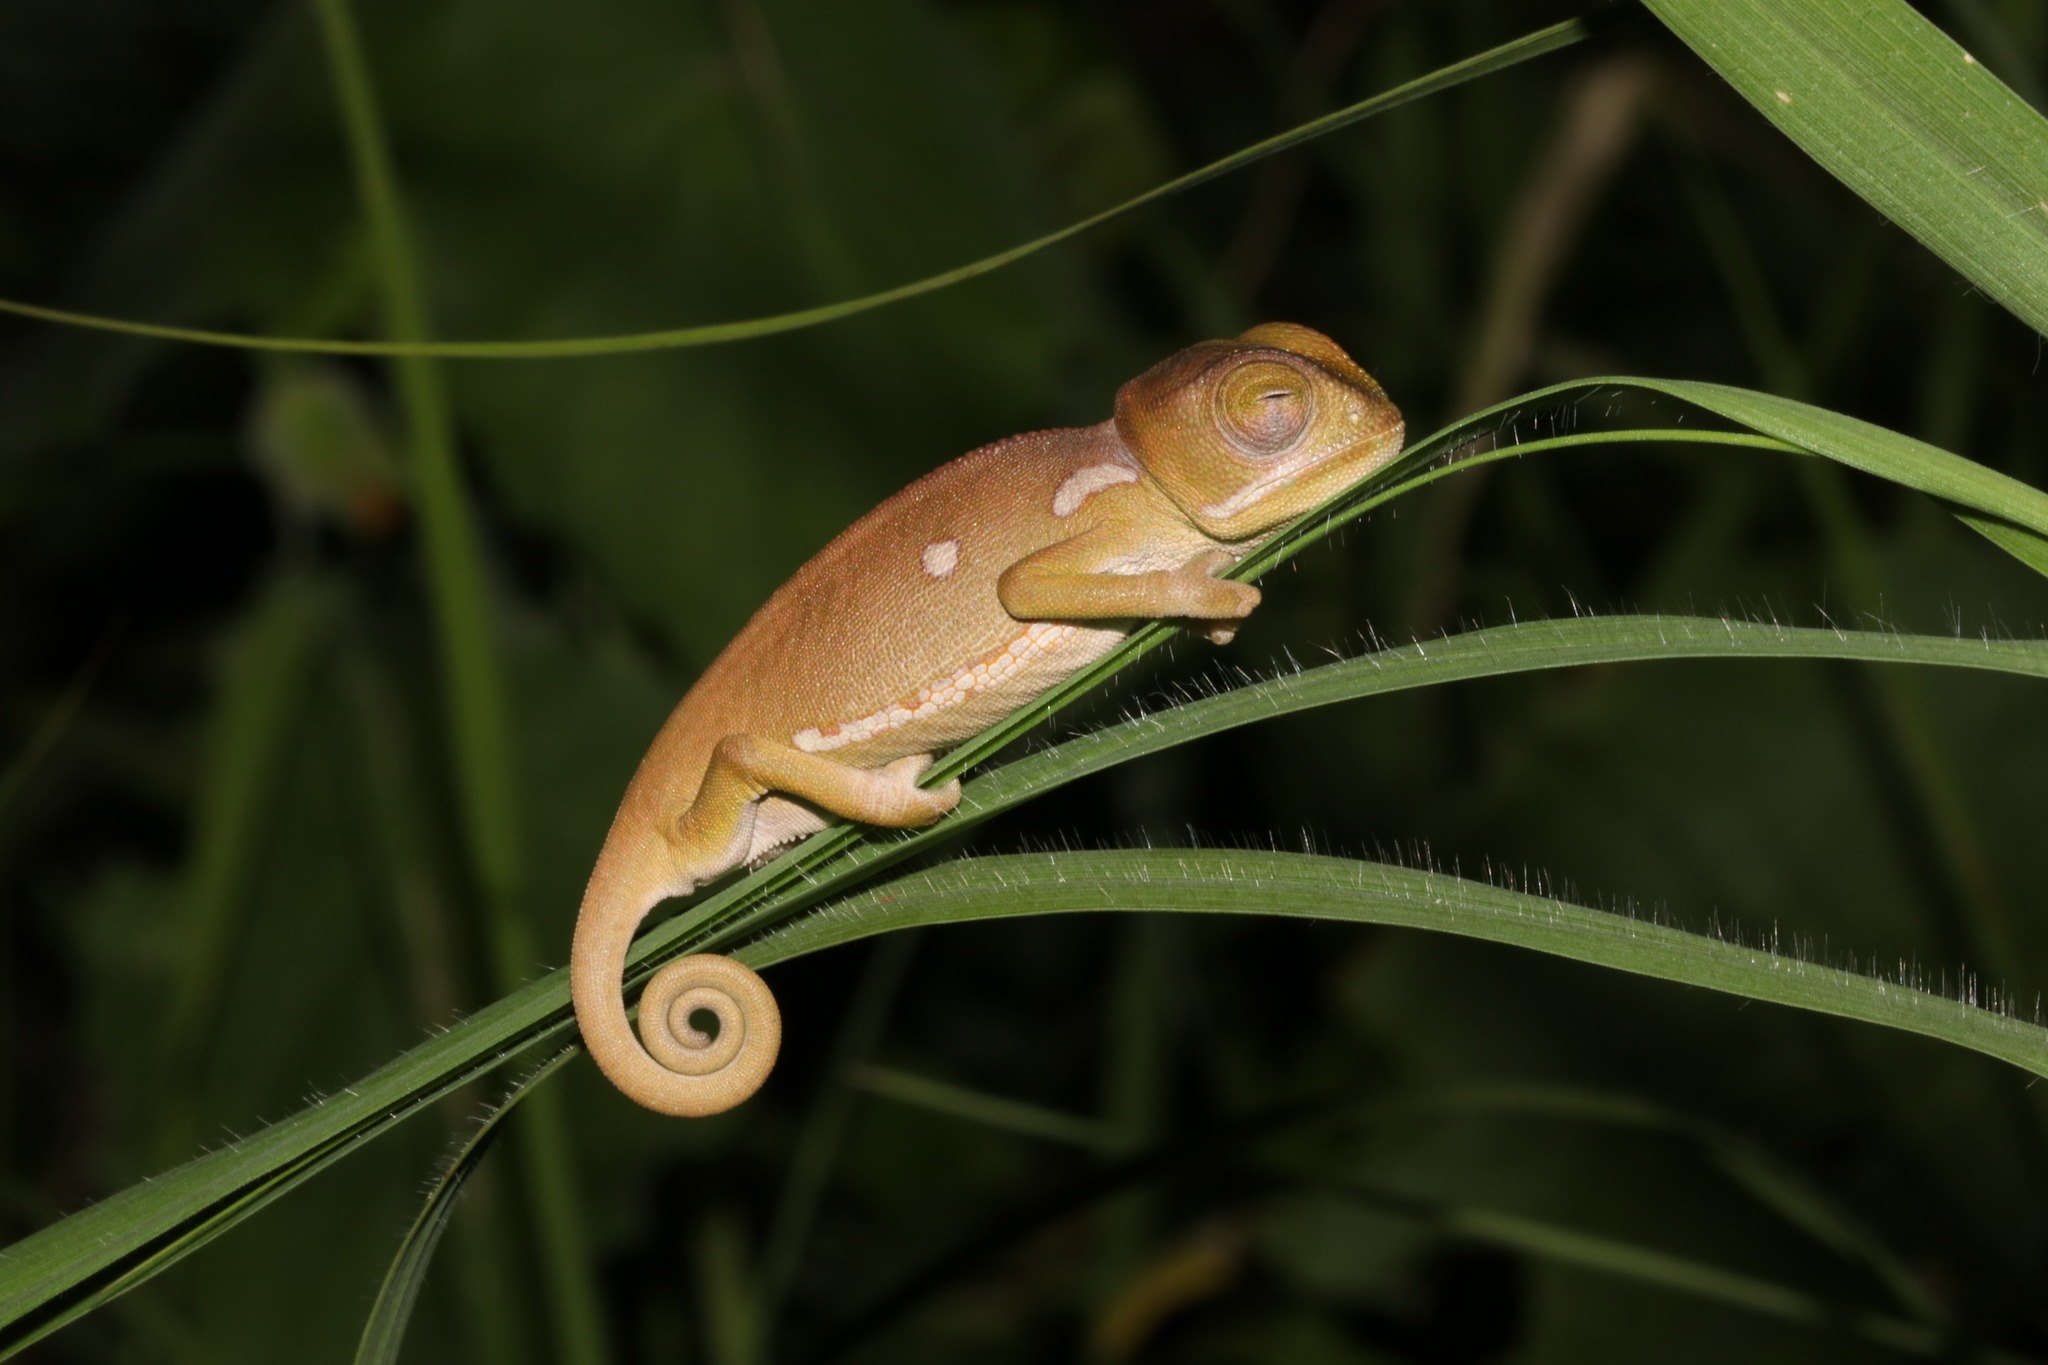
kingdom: Animalia
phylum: Chordata
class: Squamata
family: Chamaeleonidae
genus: Chamaeleo
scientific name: Chamaeleo dilepis
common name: Flapneck chameleon
